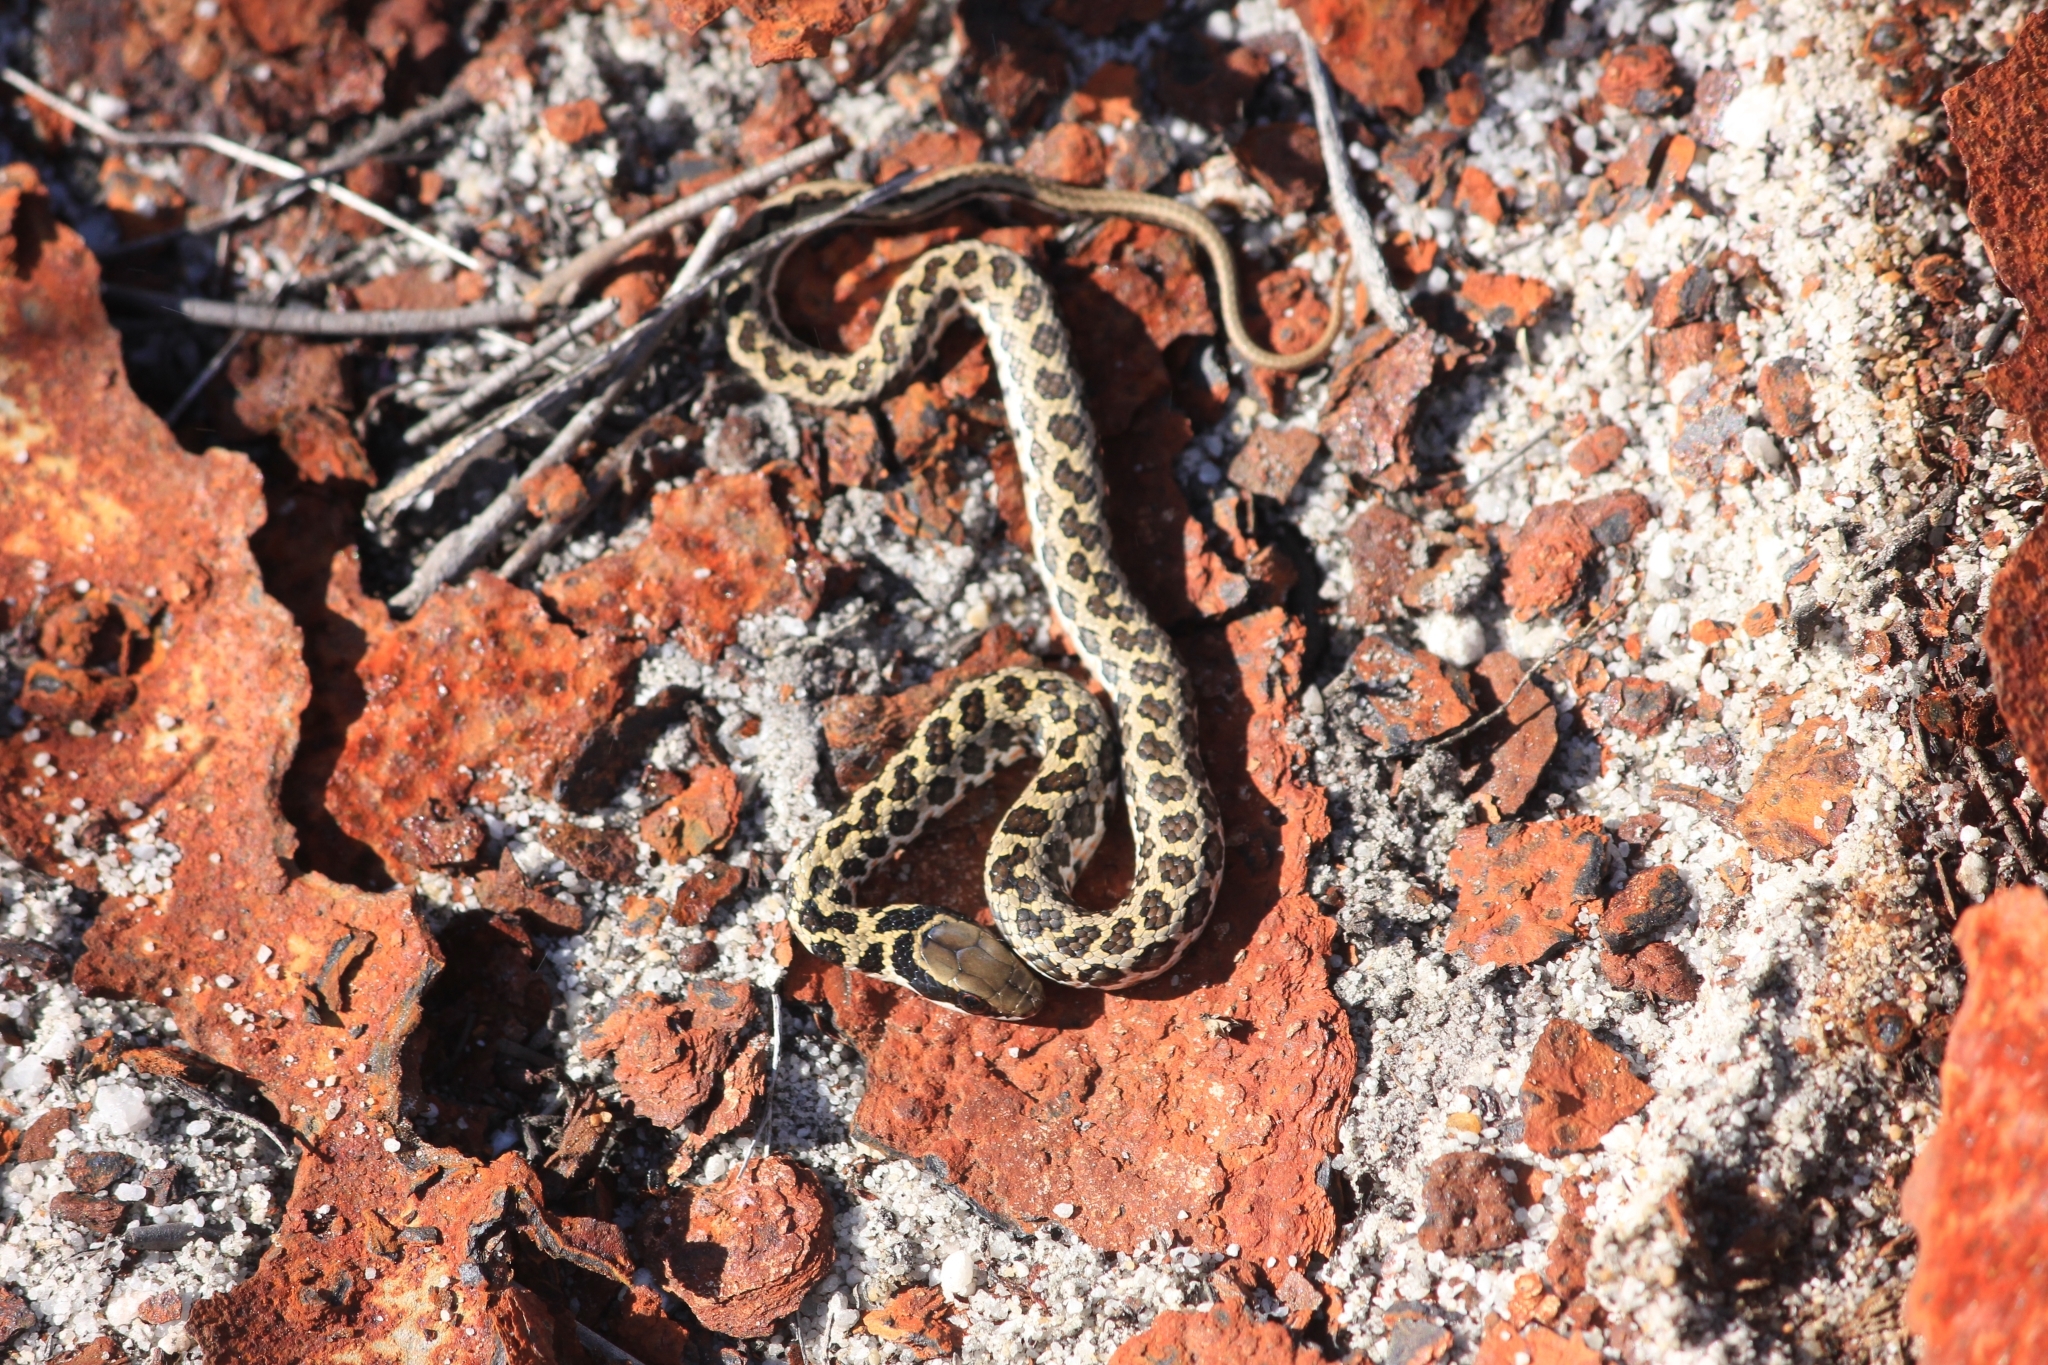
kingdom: Animalia
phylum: Chordata
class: Squamata
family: Psammophiidae
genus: Psammophylax
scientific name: Psammophylax rhombeatus
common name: Rhombic skaapsteker
